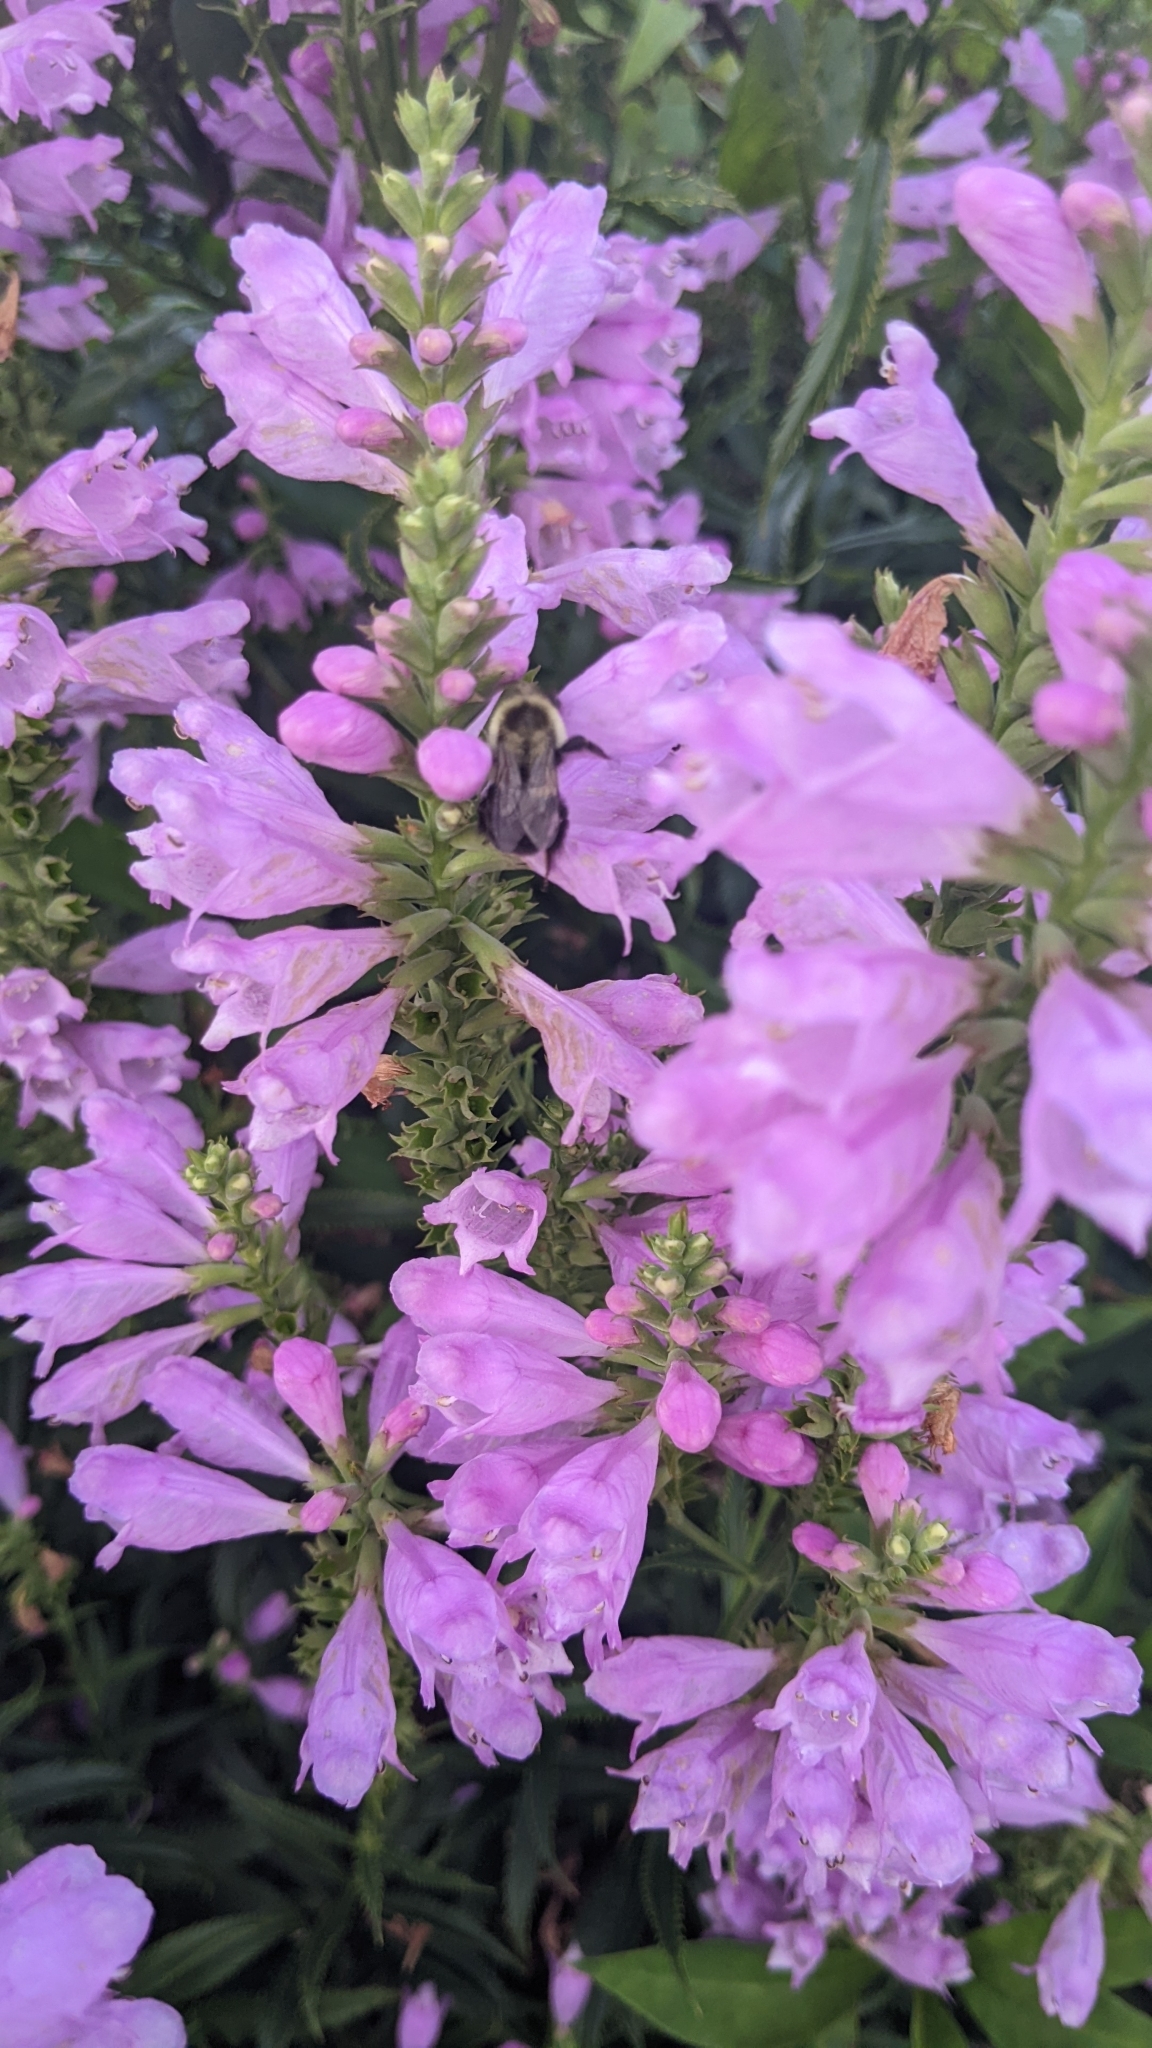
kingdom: Animalia
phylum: Arthropoda
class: Insecta
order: Hymenoptera
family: Apidae
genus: Bombus
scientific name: Bombus impatiens
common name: Common eastern bumble bee
